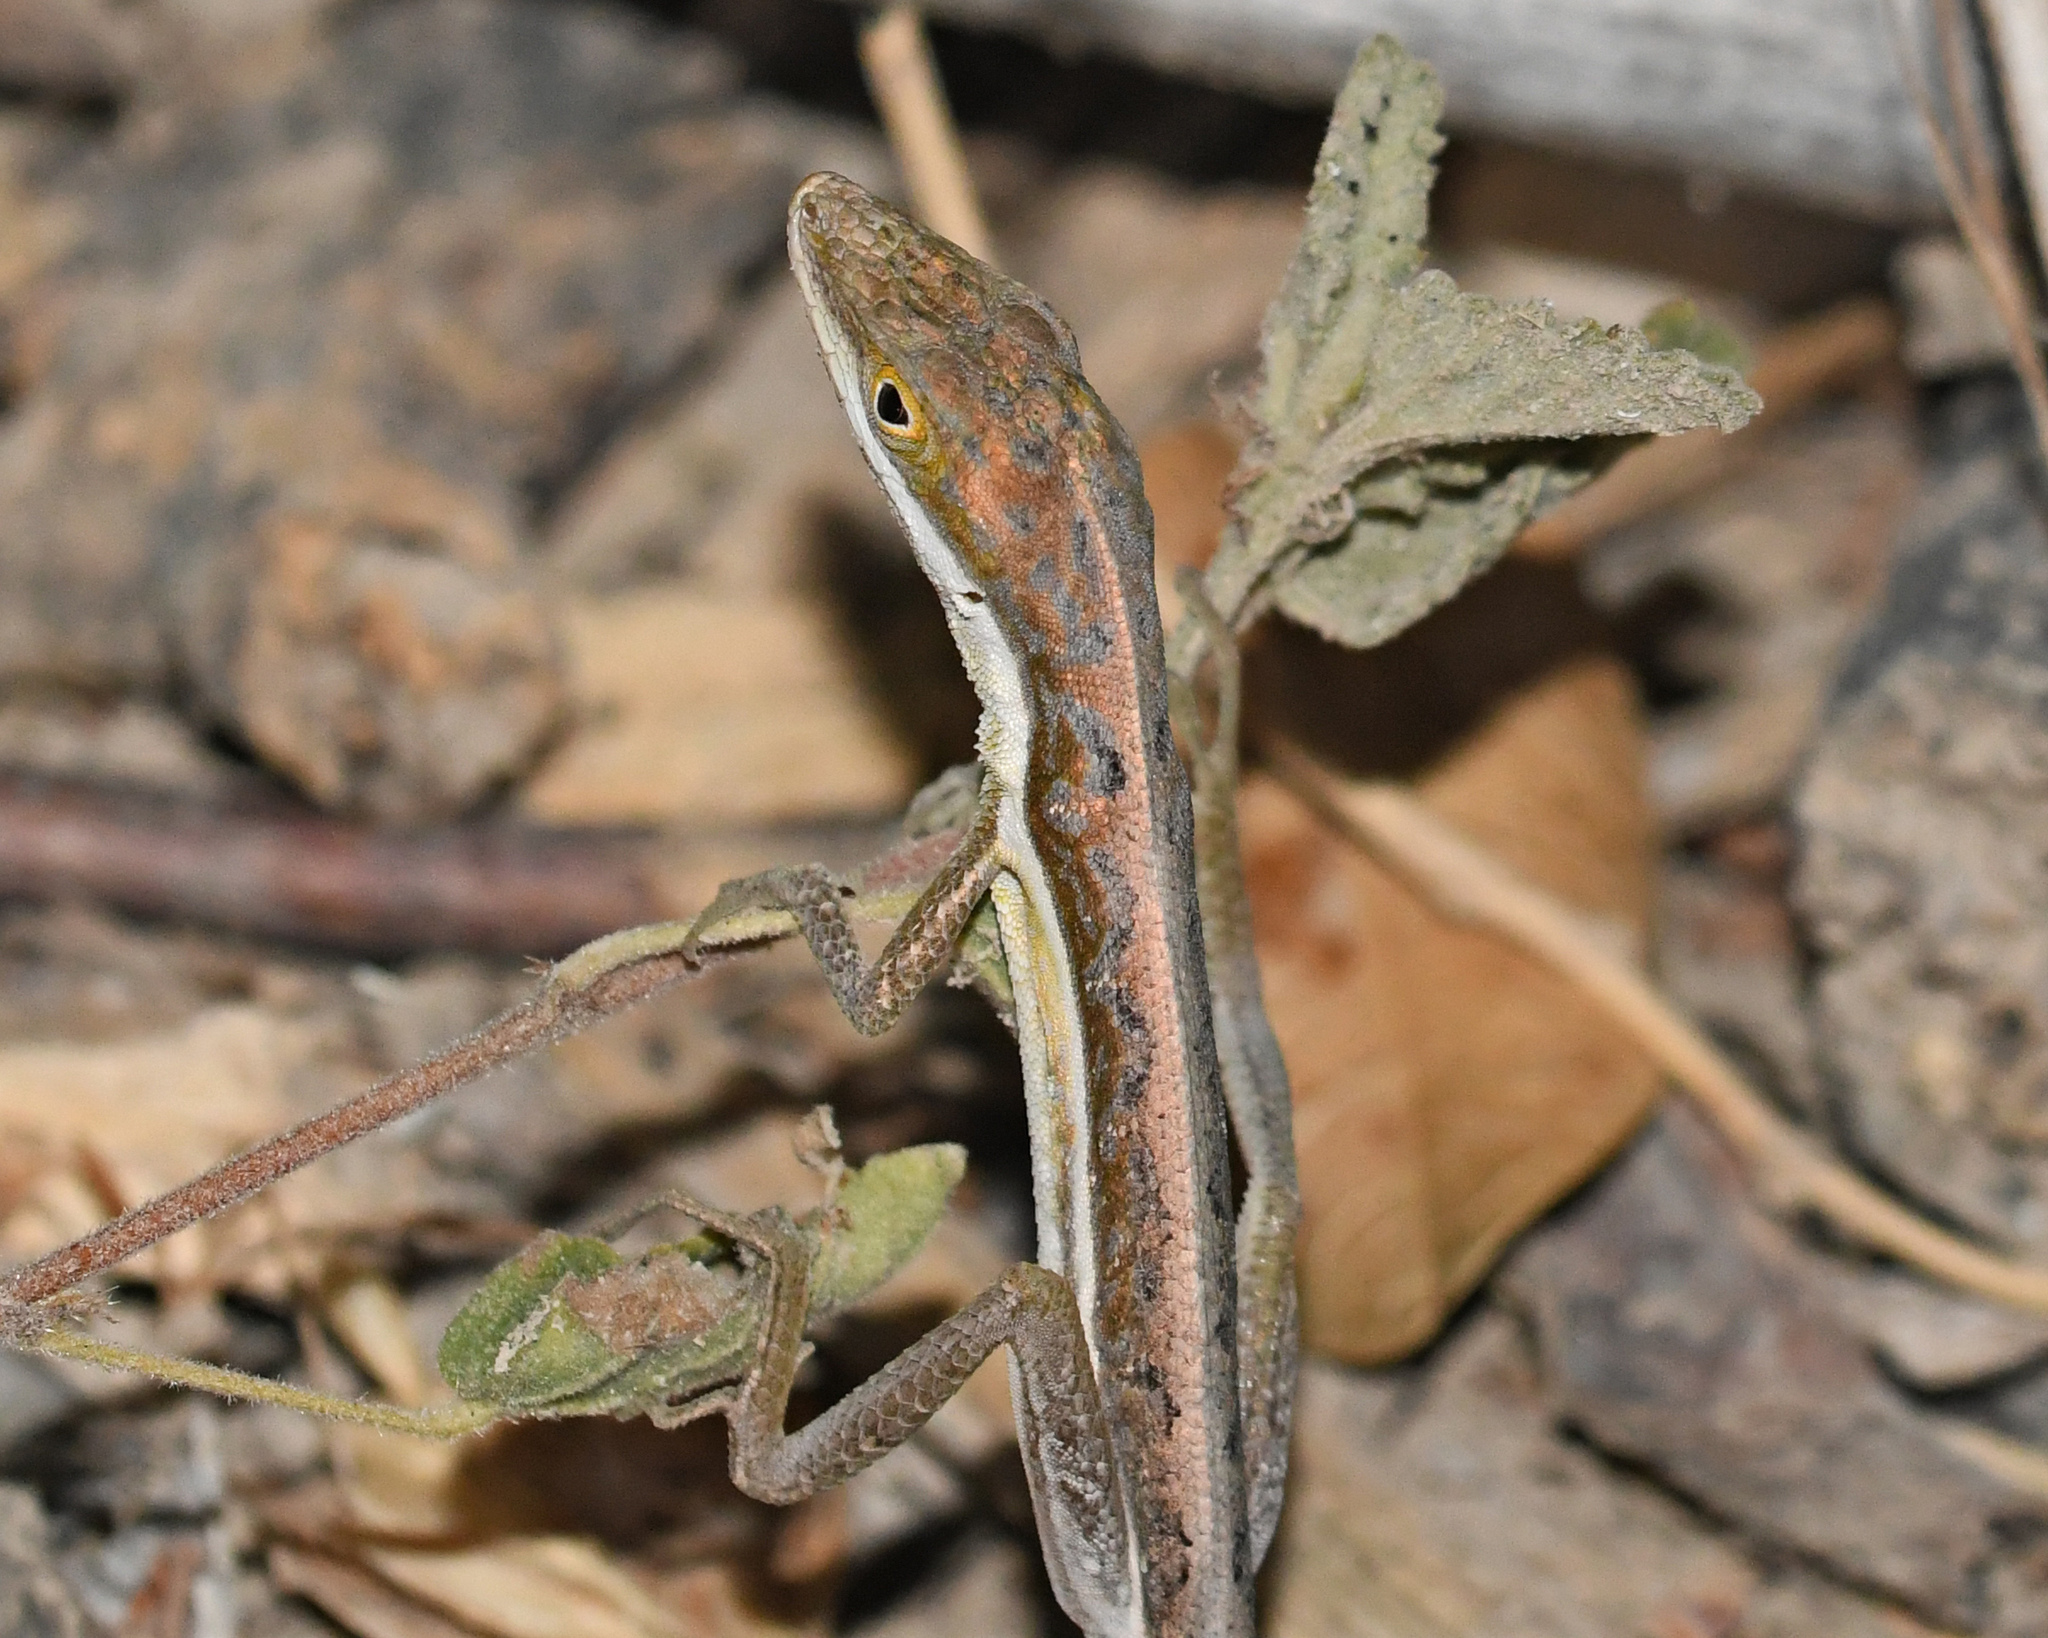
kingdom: Animalia
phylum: Chordata
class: Squamata
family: Dactyloidae
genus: Anolis
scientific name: Anolis olssoni
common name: Olsson's anole
